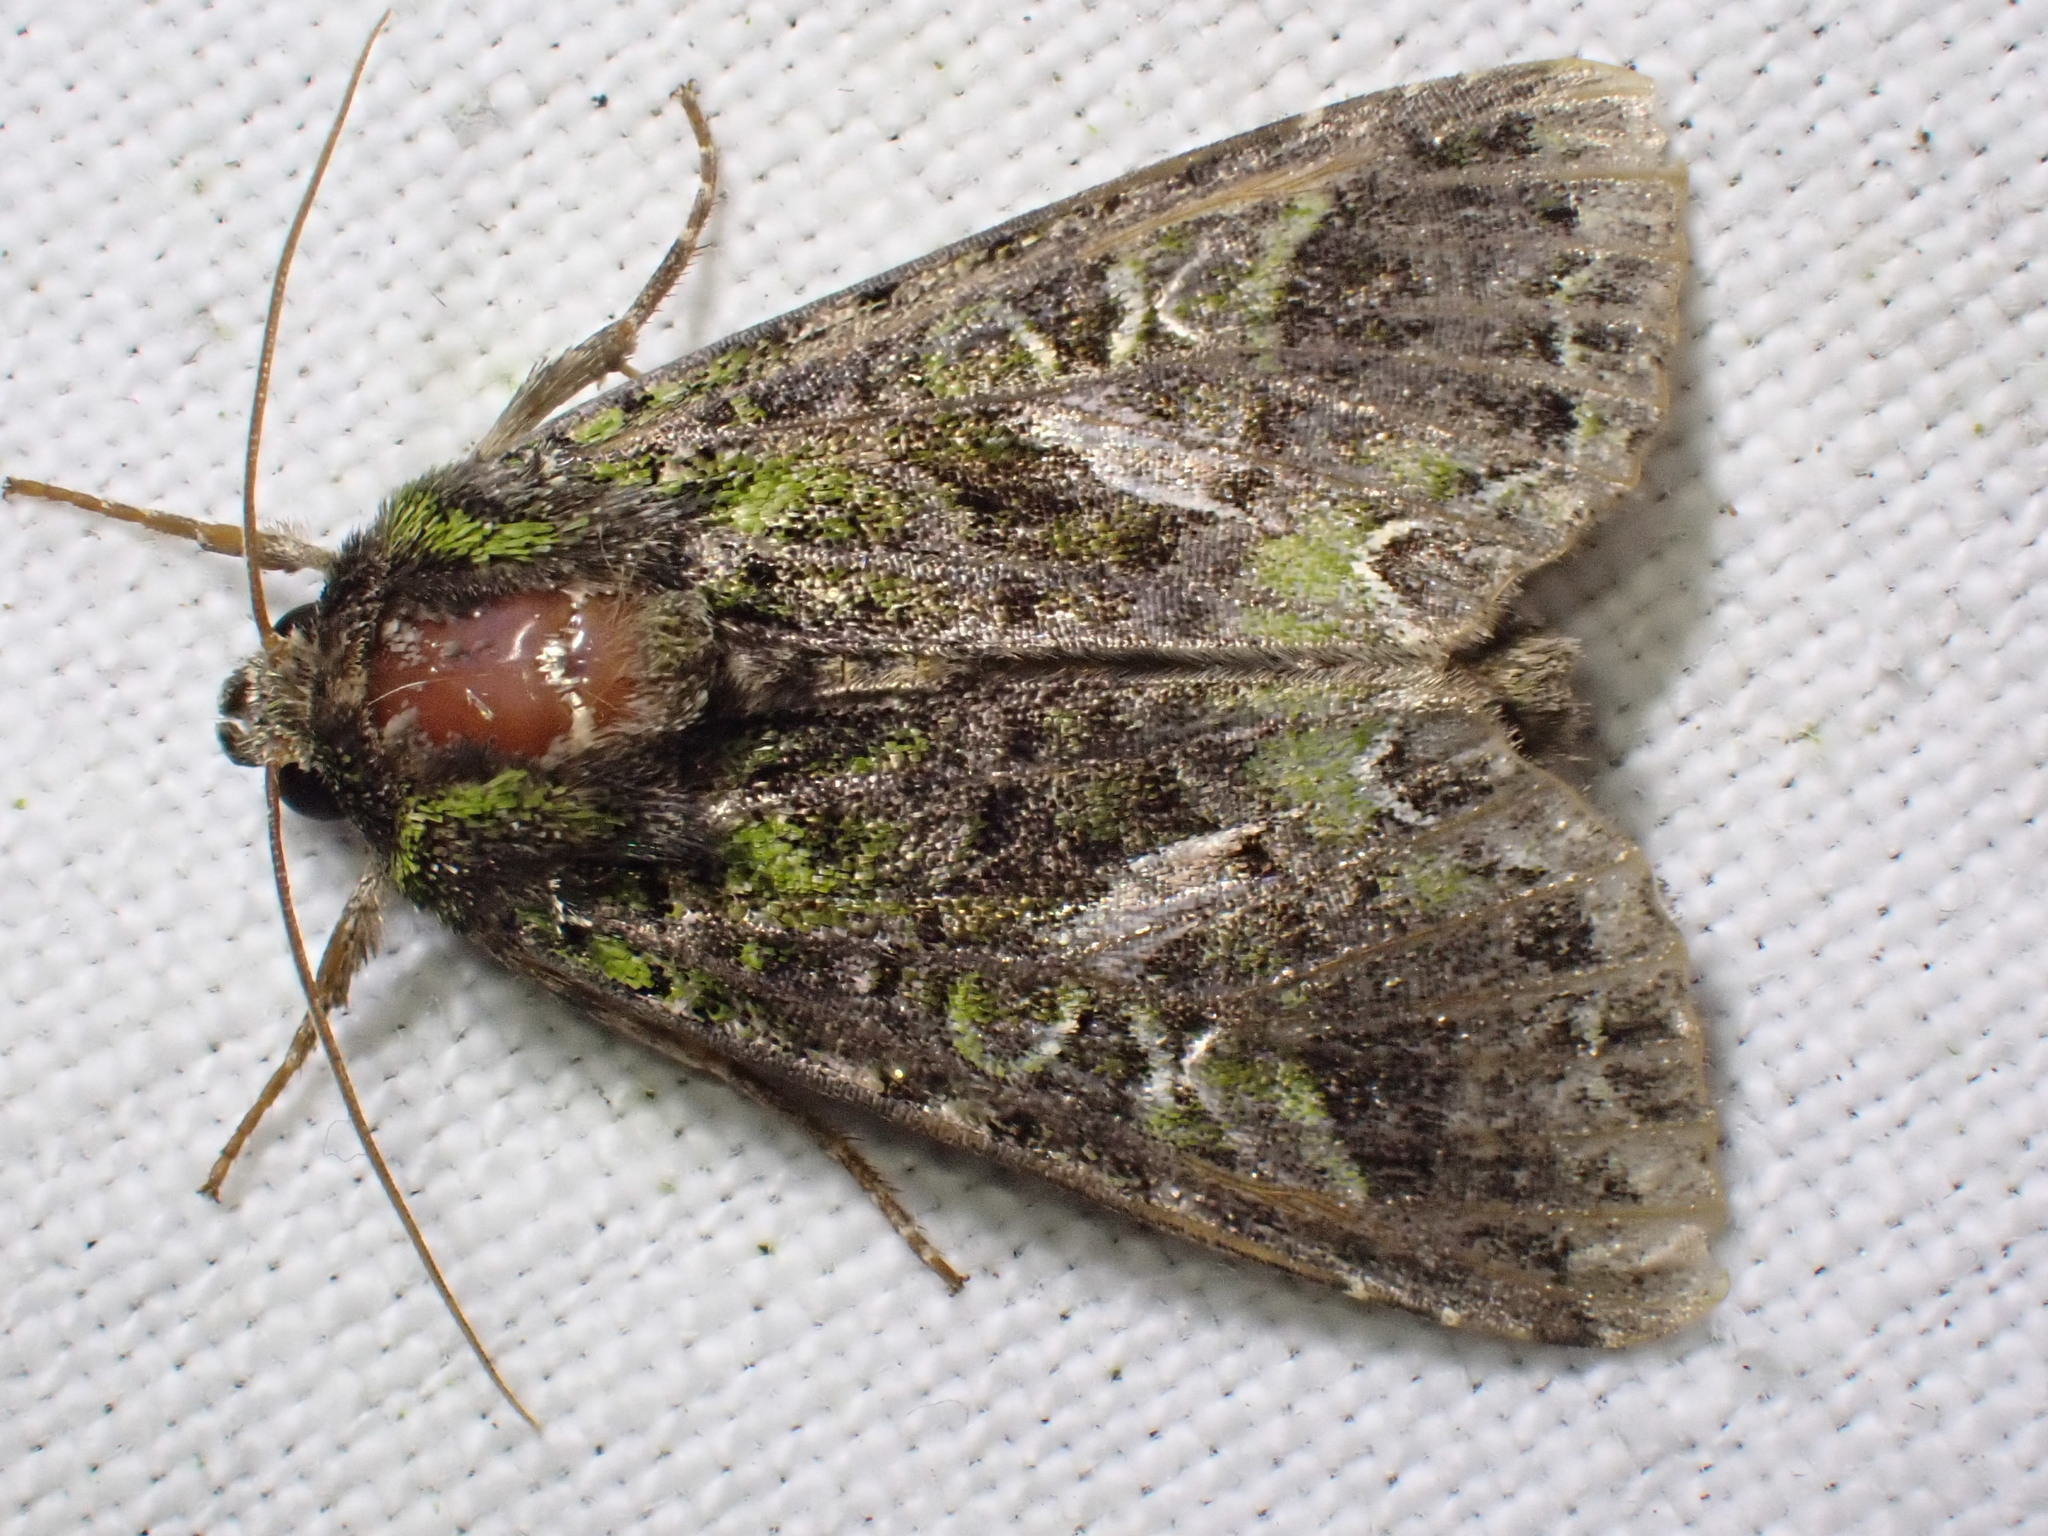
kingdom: Animalia
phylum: Arthropoda
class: Insecta
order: Lepidoptera
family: Noctuidae
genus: Trachea
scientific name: Trachea atriplicis
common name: Orache moth
